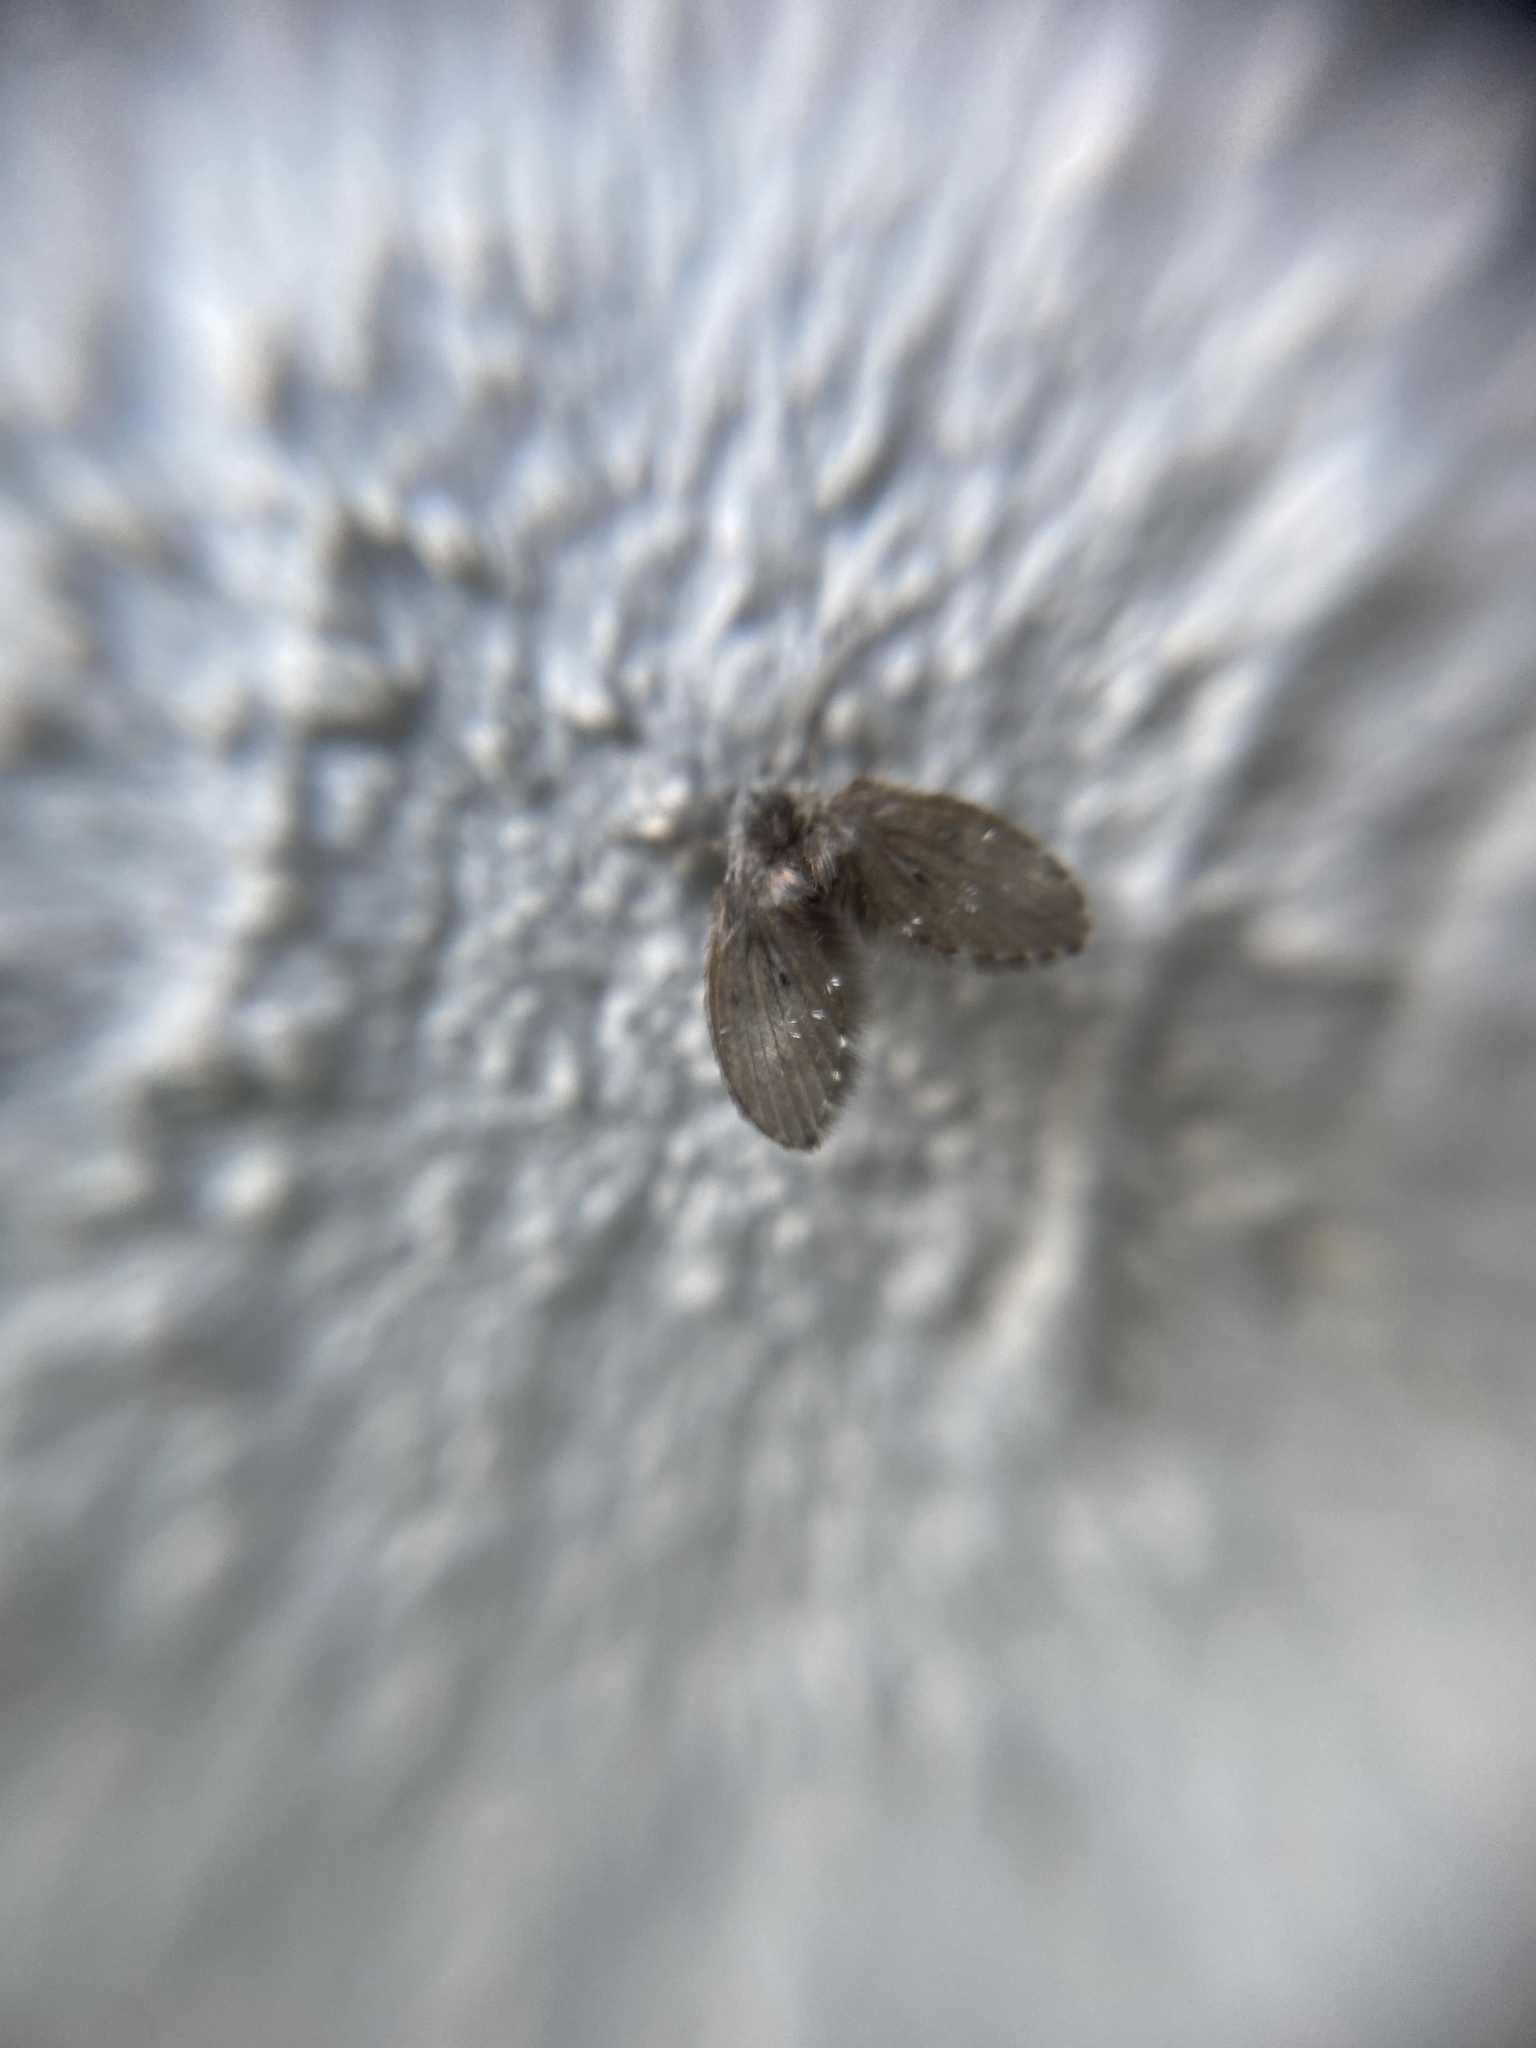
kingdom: Animalia
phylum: Arthropoda
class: Insecta
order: Diptera
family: Psychodidae
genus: Clogmia
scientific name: Clogmia albipunctatus
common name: White-spotted moth fly
